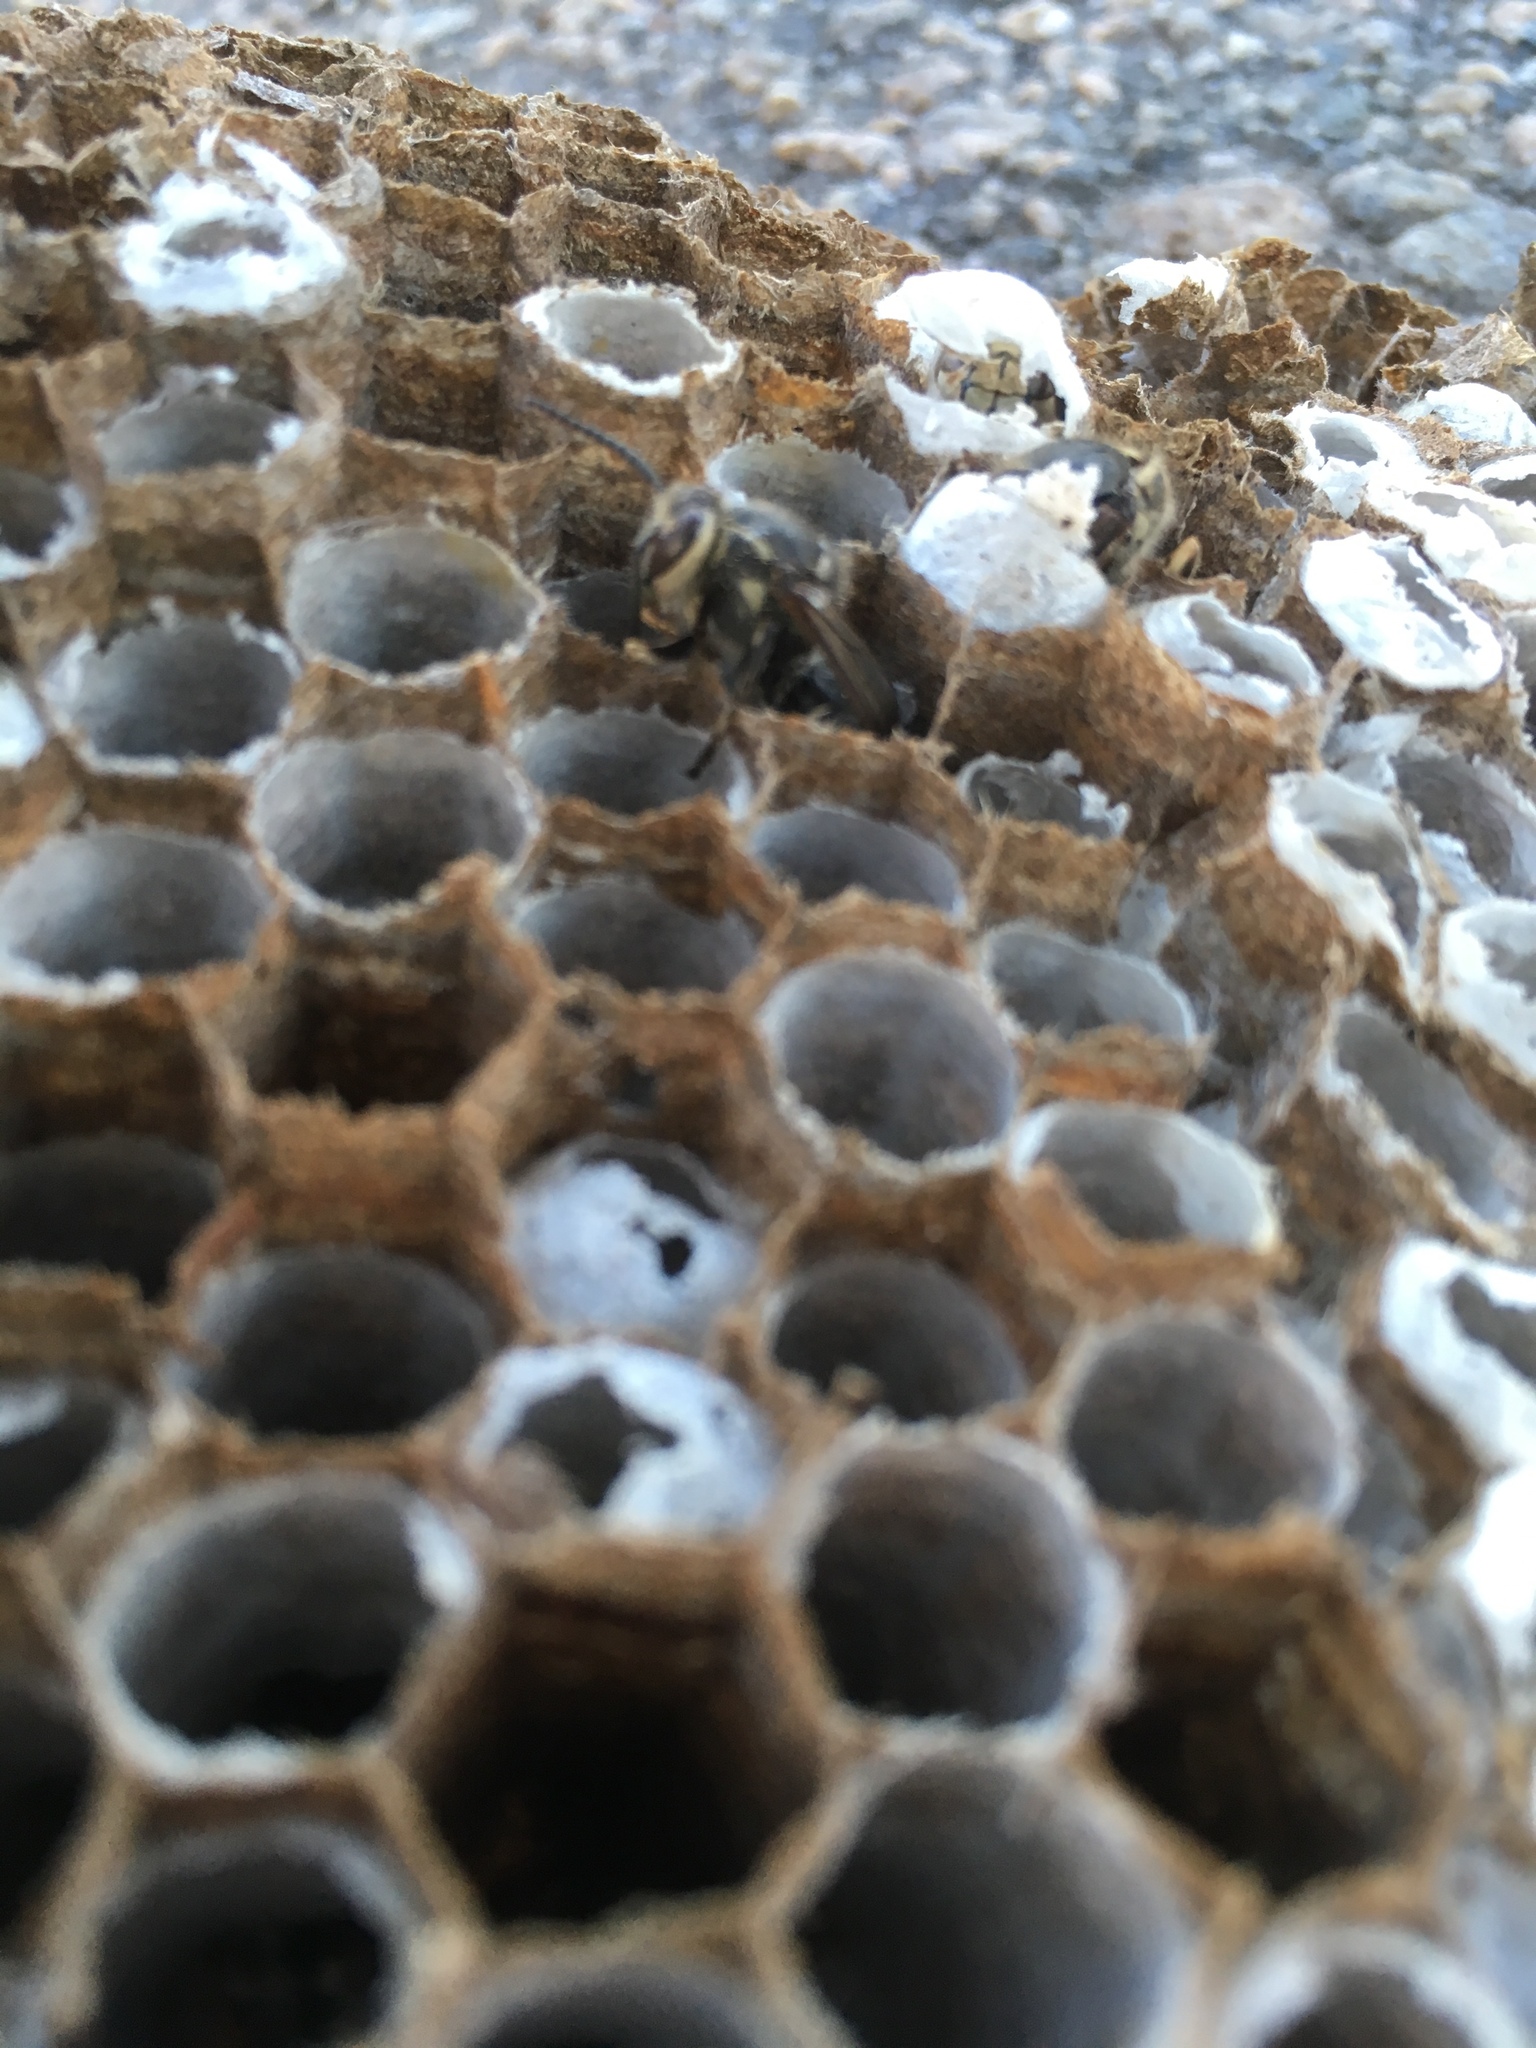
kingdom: Animalia
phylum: Arthropoda
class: Insecta
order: Hymenoptera
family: Vespidae
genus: Dolichovespula
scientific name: Dolichovespula maculata
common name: Bald-faced hornet
